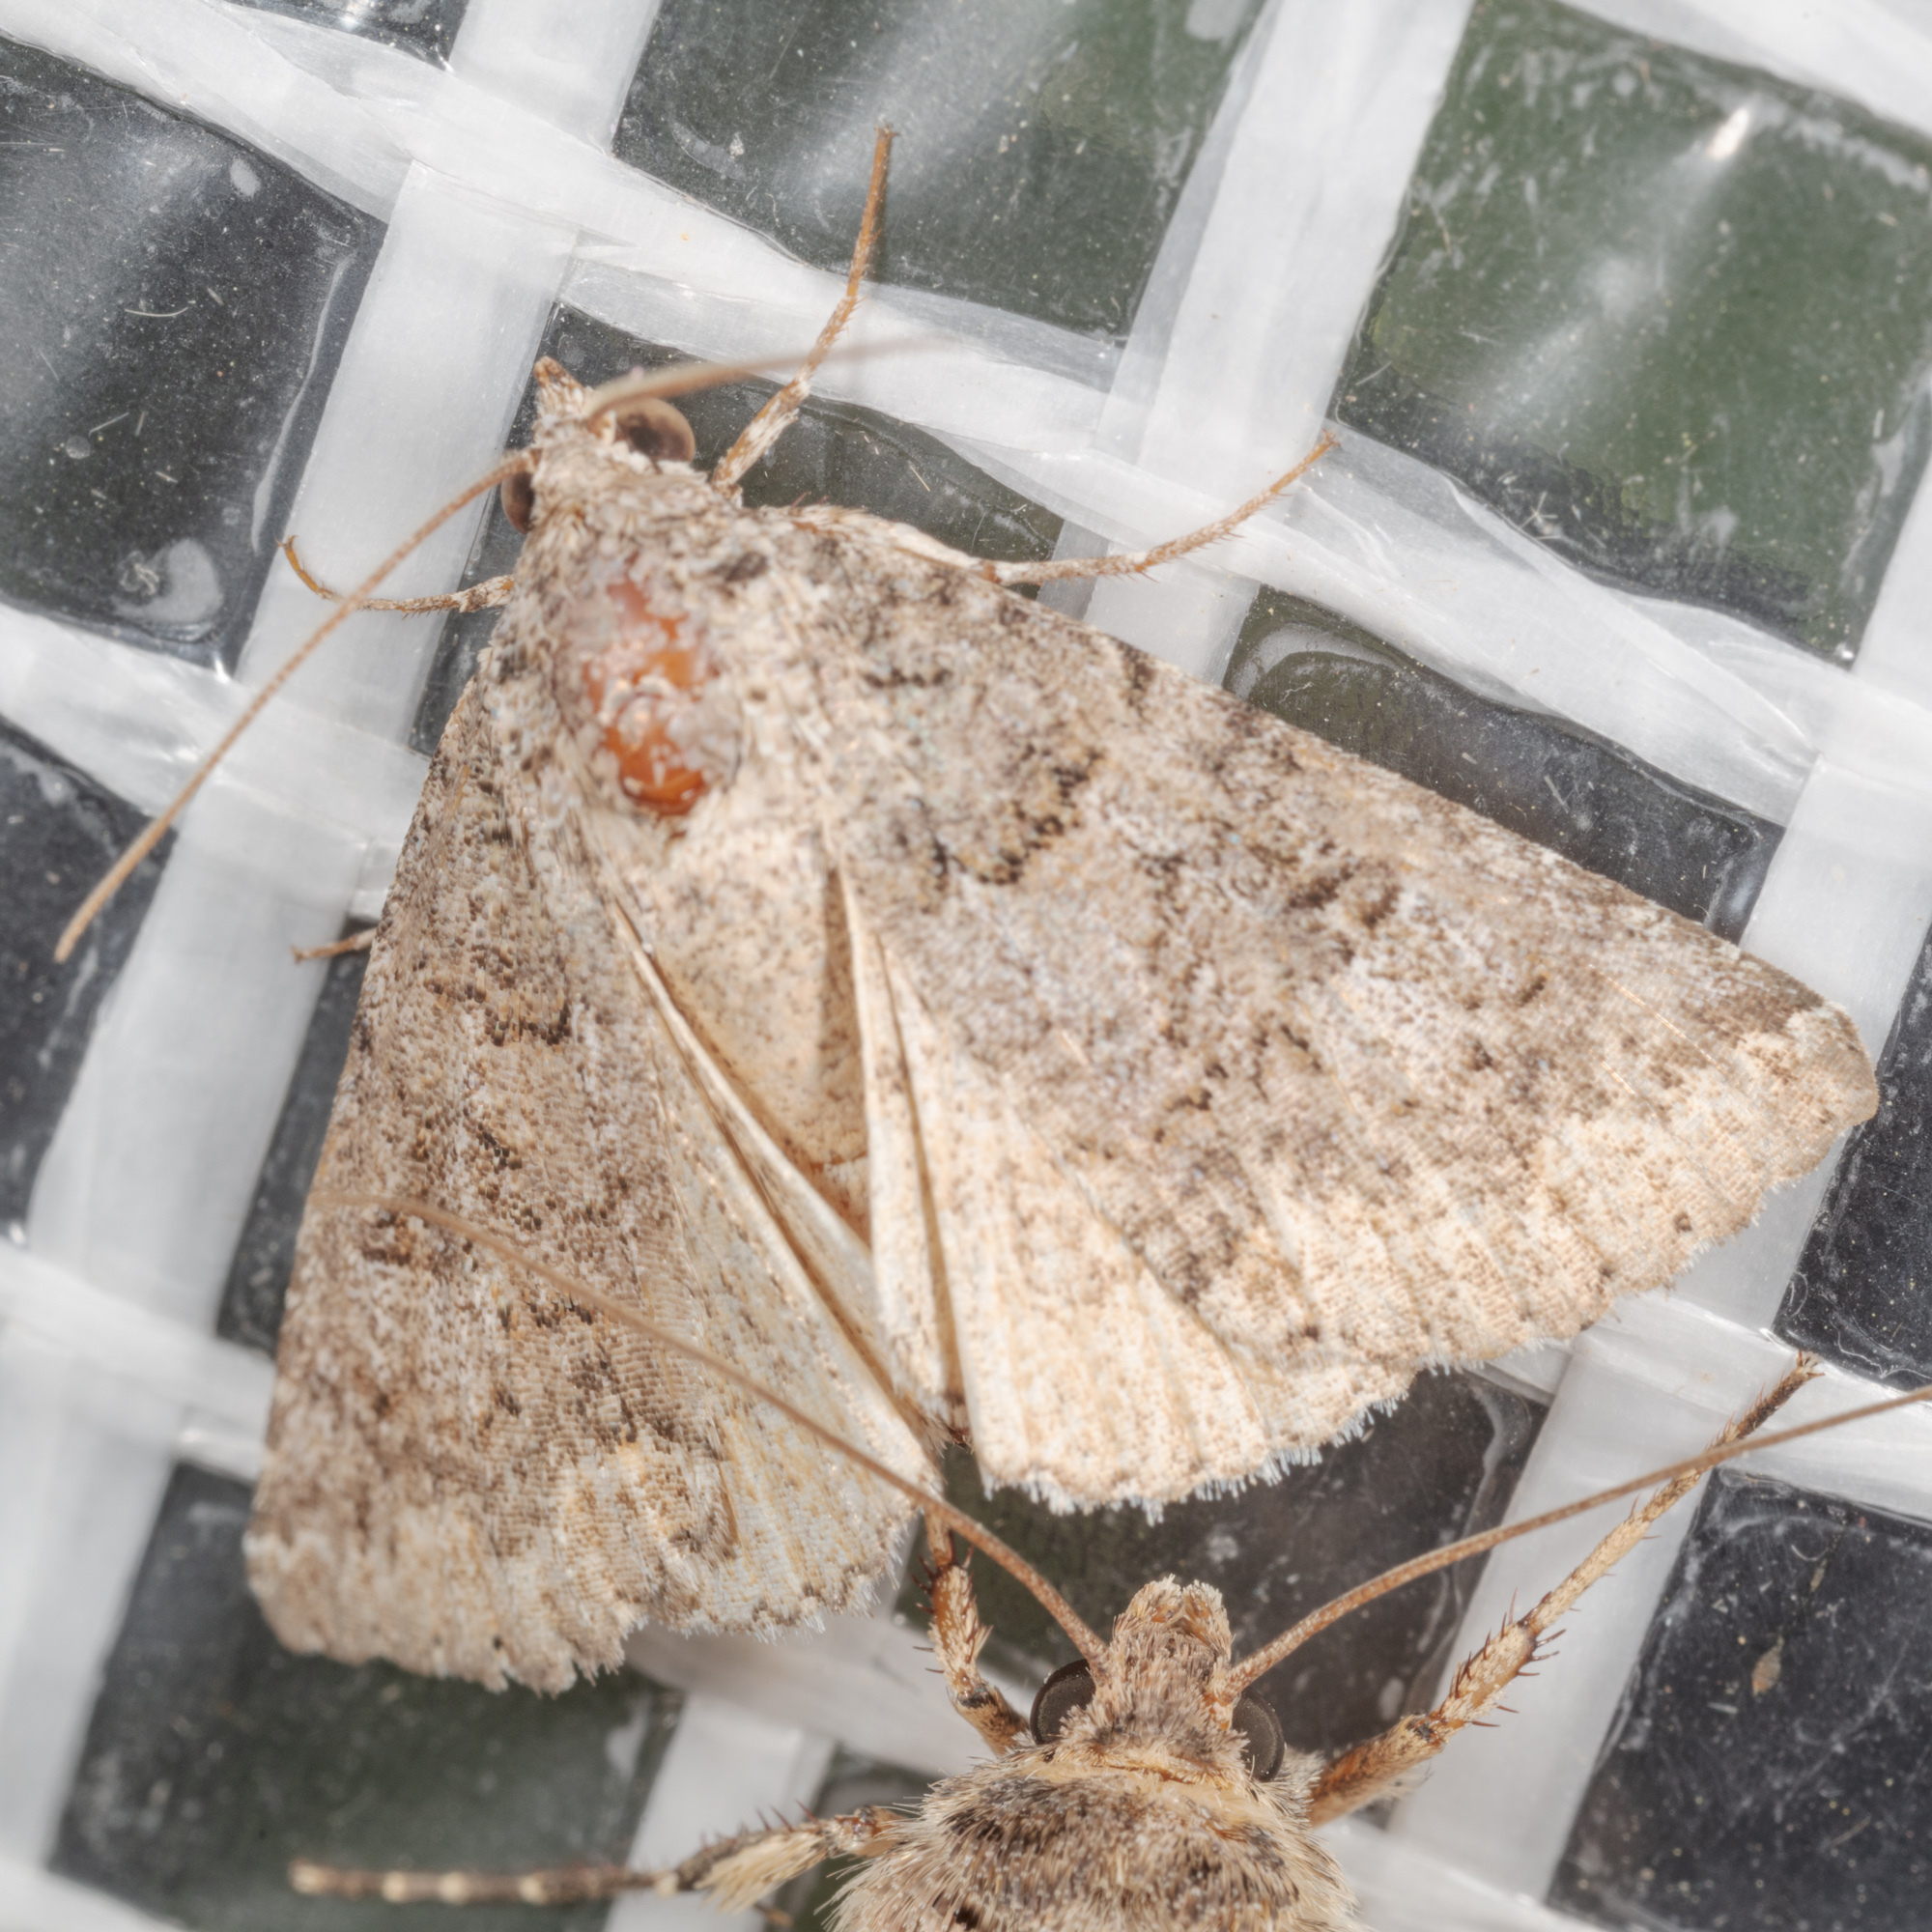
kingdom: Animalia
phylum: Arthropoda
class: Insecta
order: Lepidoptera
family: Erebidae
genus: Eubolina
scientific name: Eubolina impartialis
